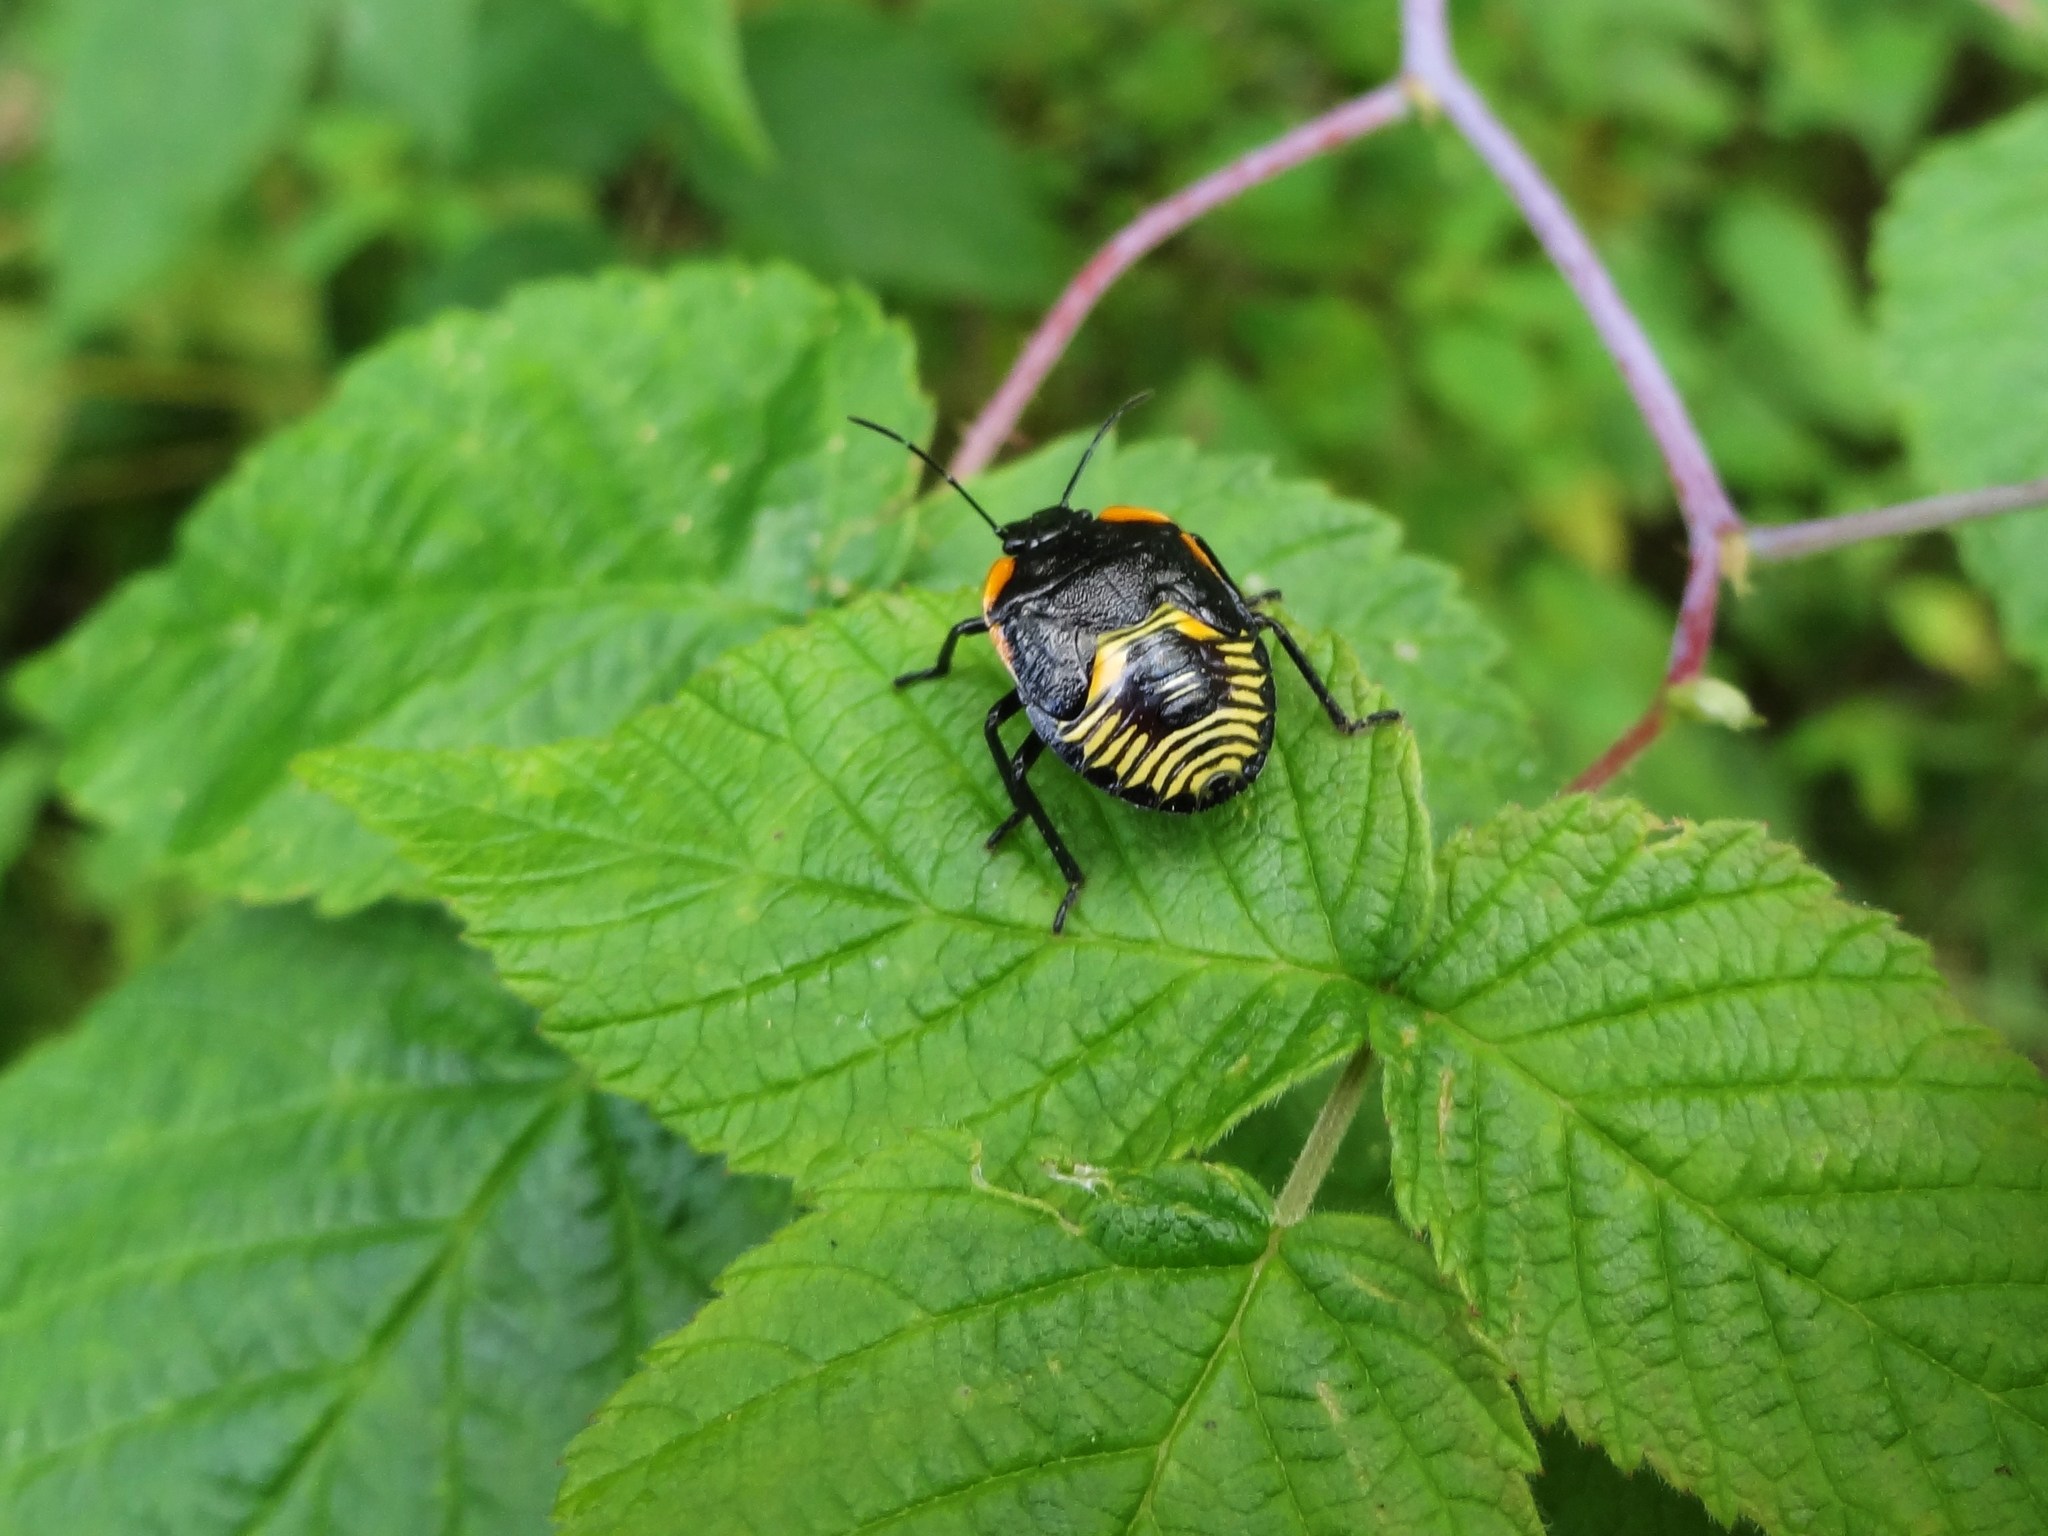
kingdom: Animalia
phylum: Arthropoda
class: Insecta
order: Hemiptera
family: Pentatomidae
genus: Chinavia
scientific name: Chinavia hilaris
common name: Green stink bug
